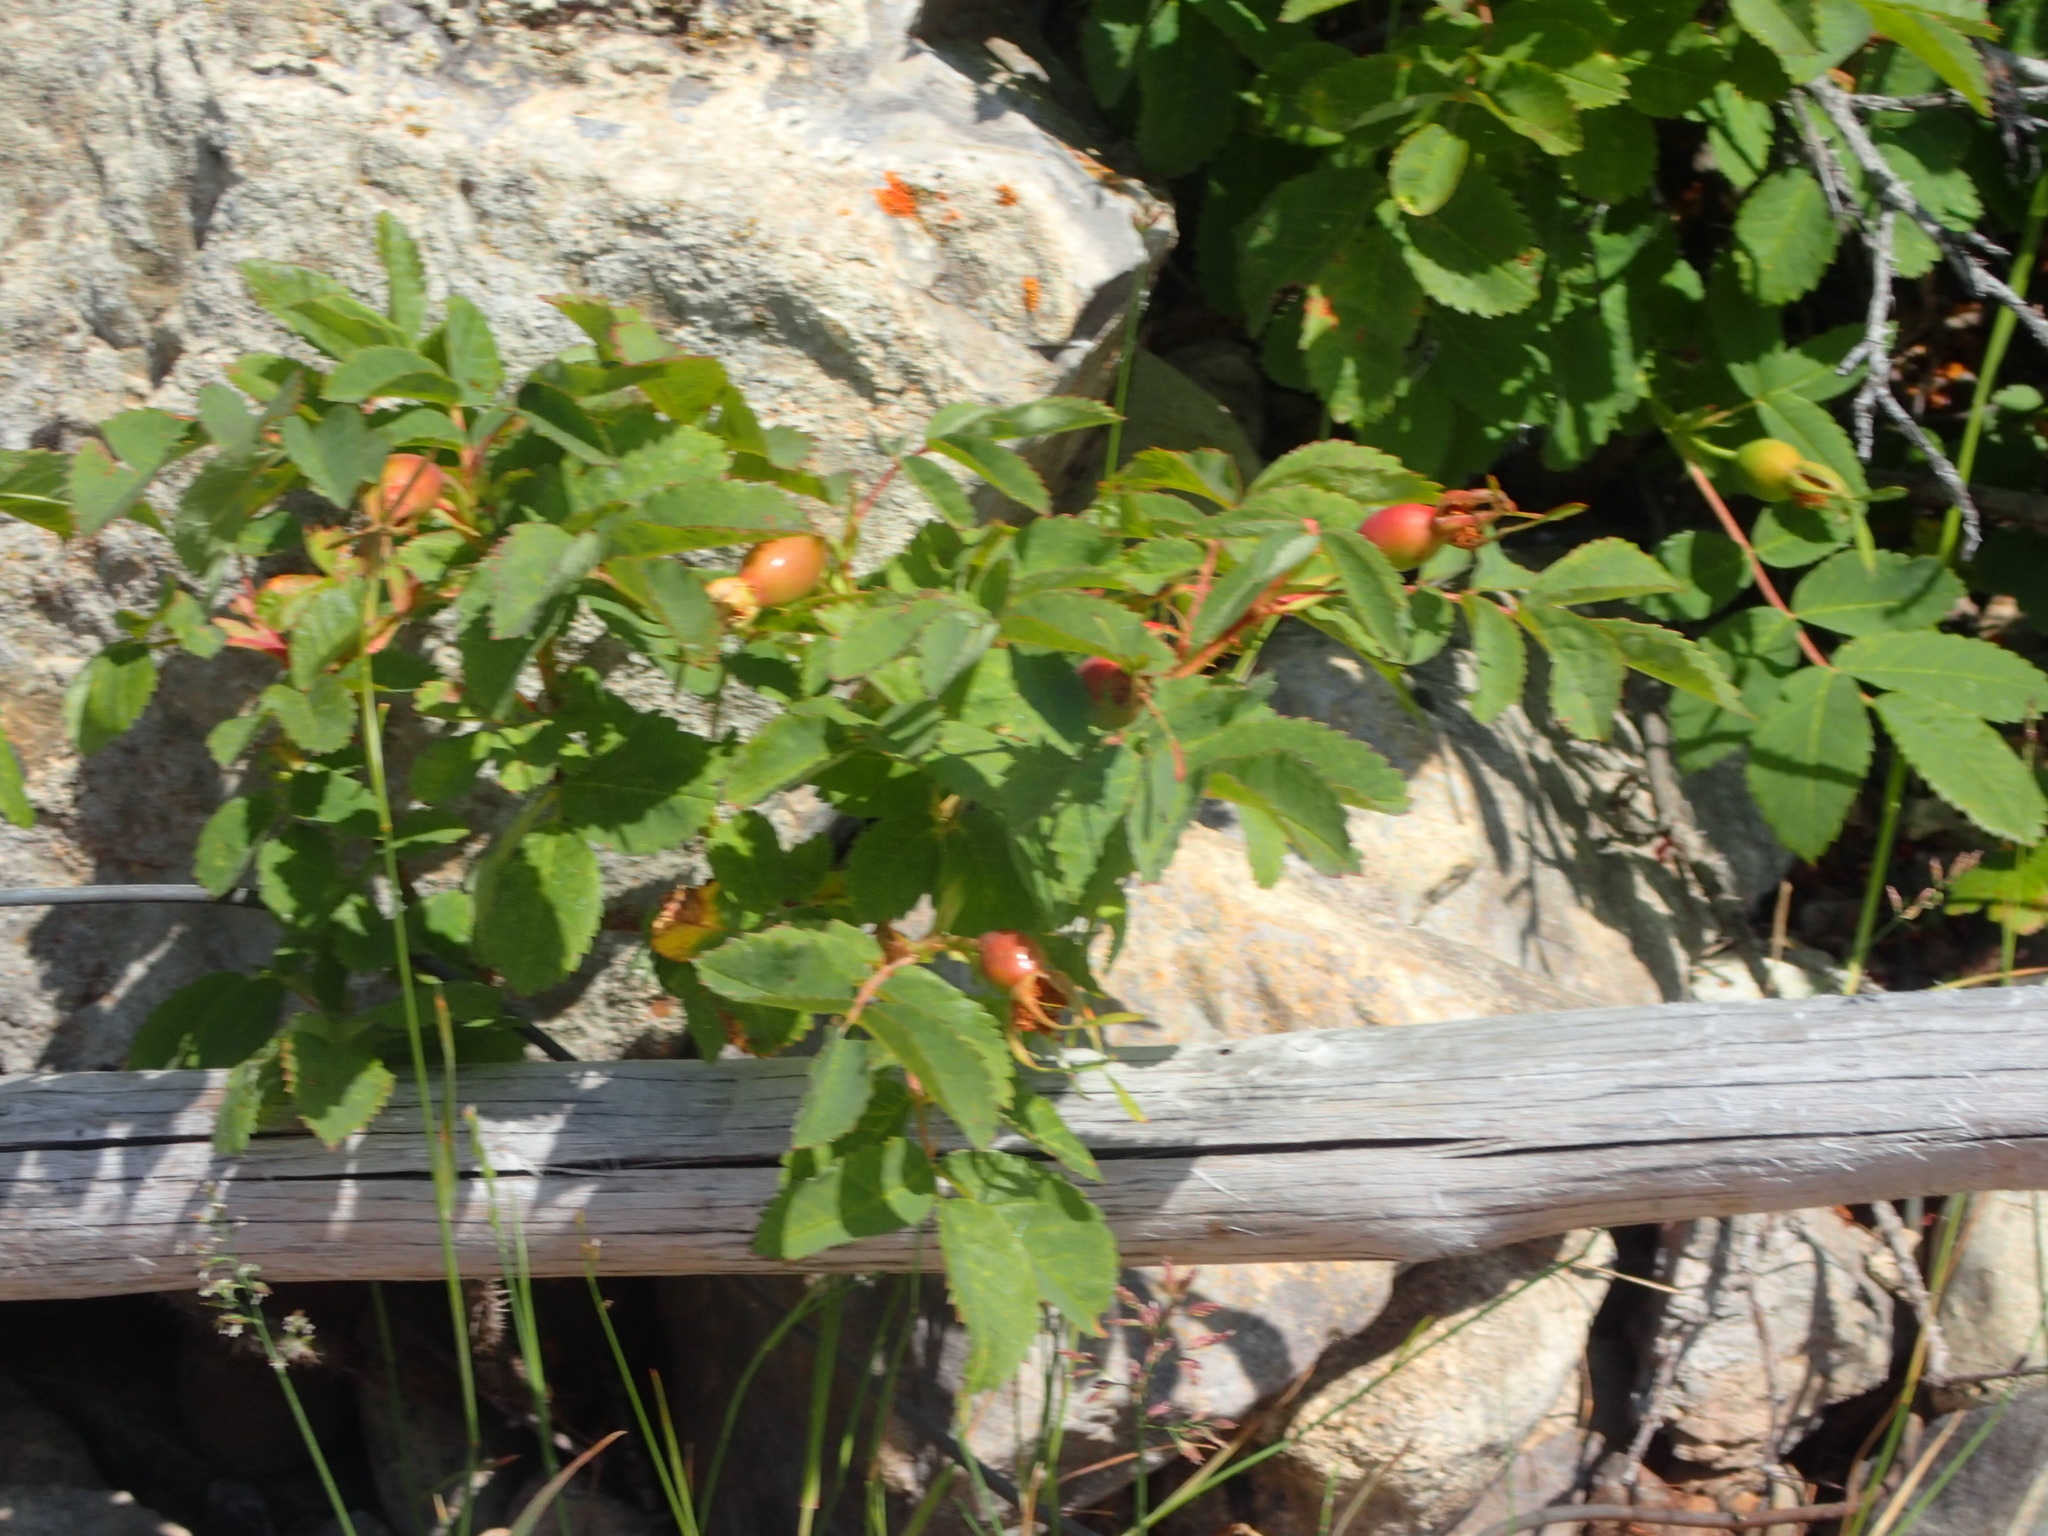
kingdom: Plantae
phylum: Tracheophyta
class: Magnoliopsida
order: Rosales
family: Rosaceae
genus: Rosa
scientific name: Rosa acicularis
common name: Prickly rose
